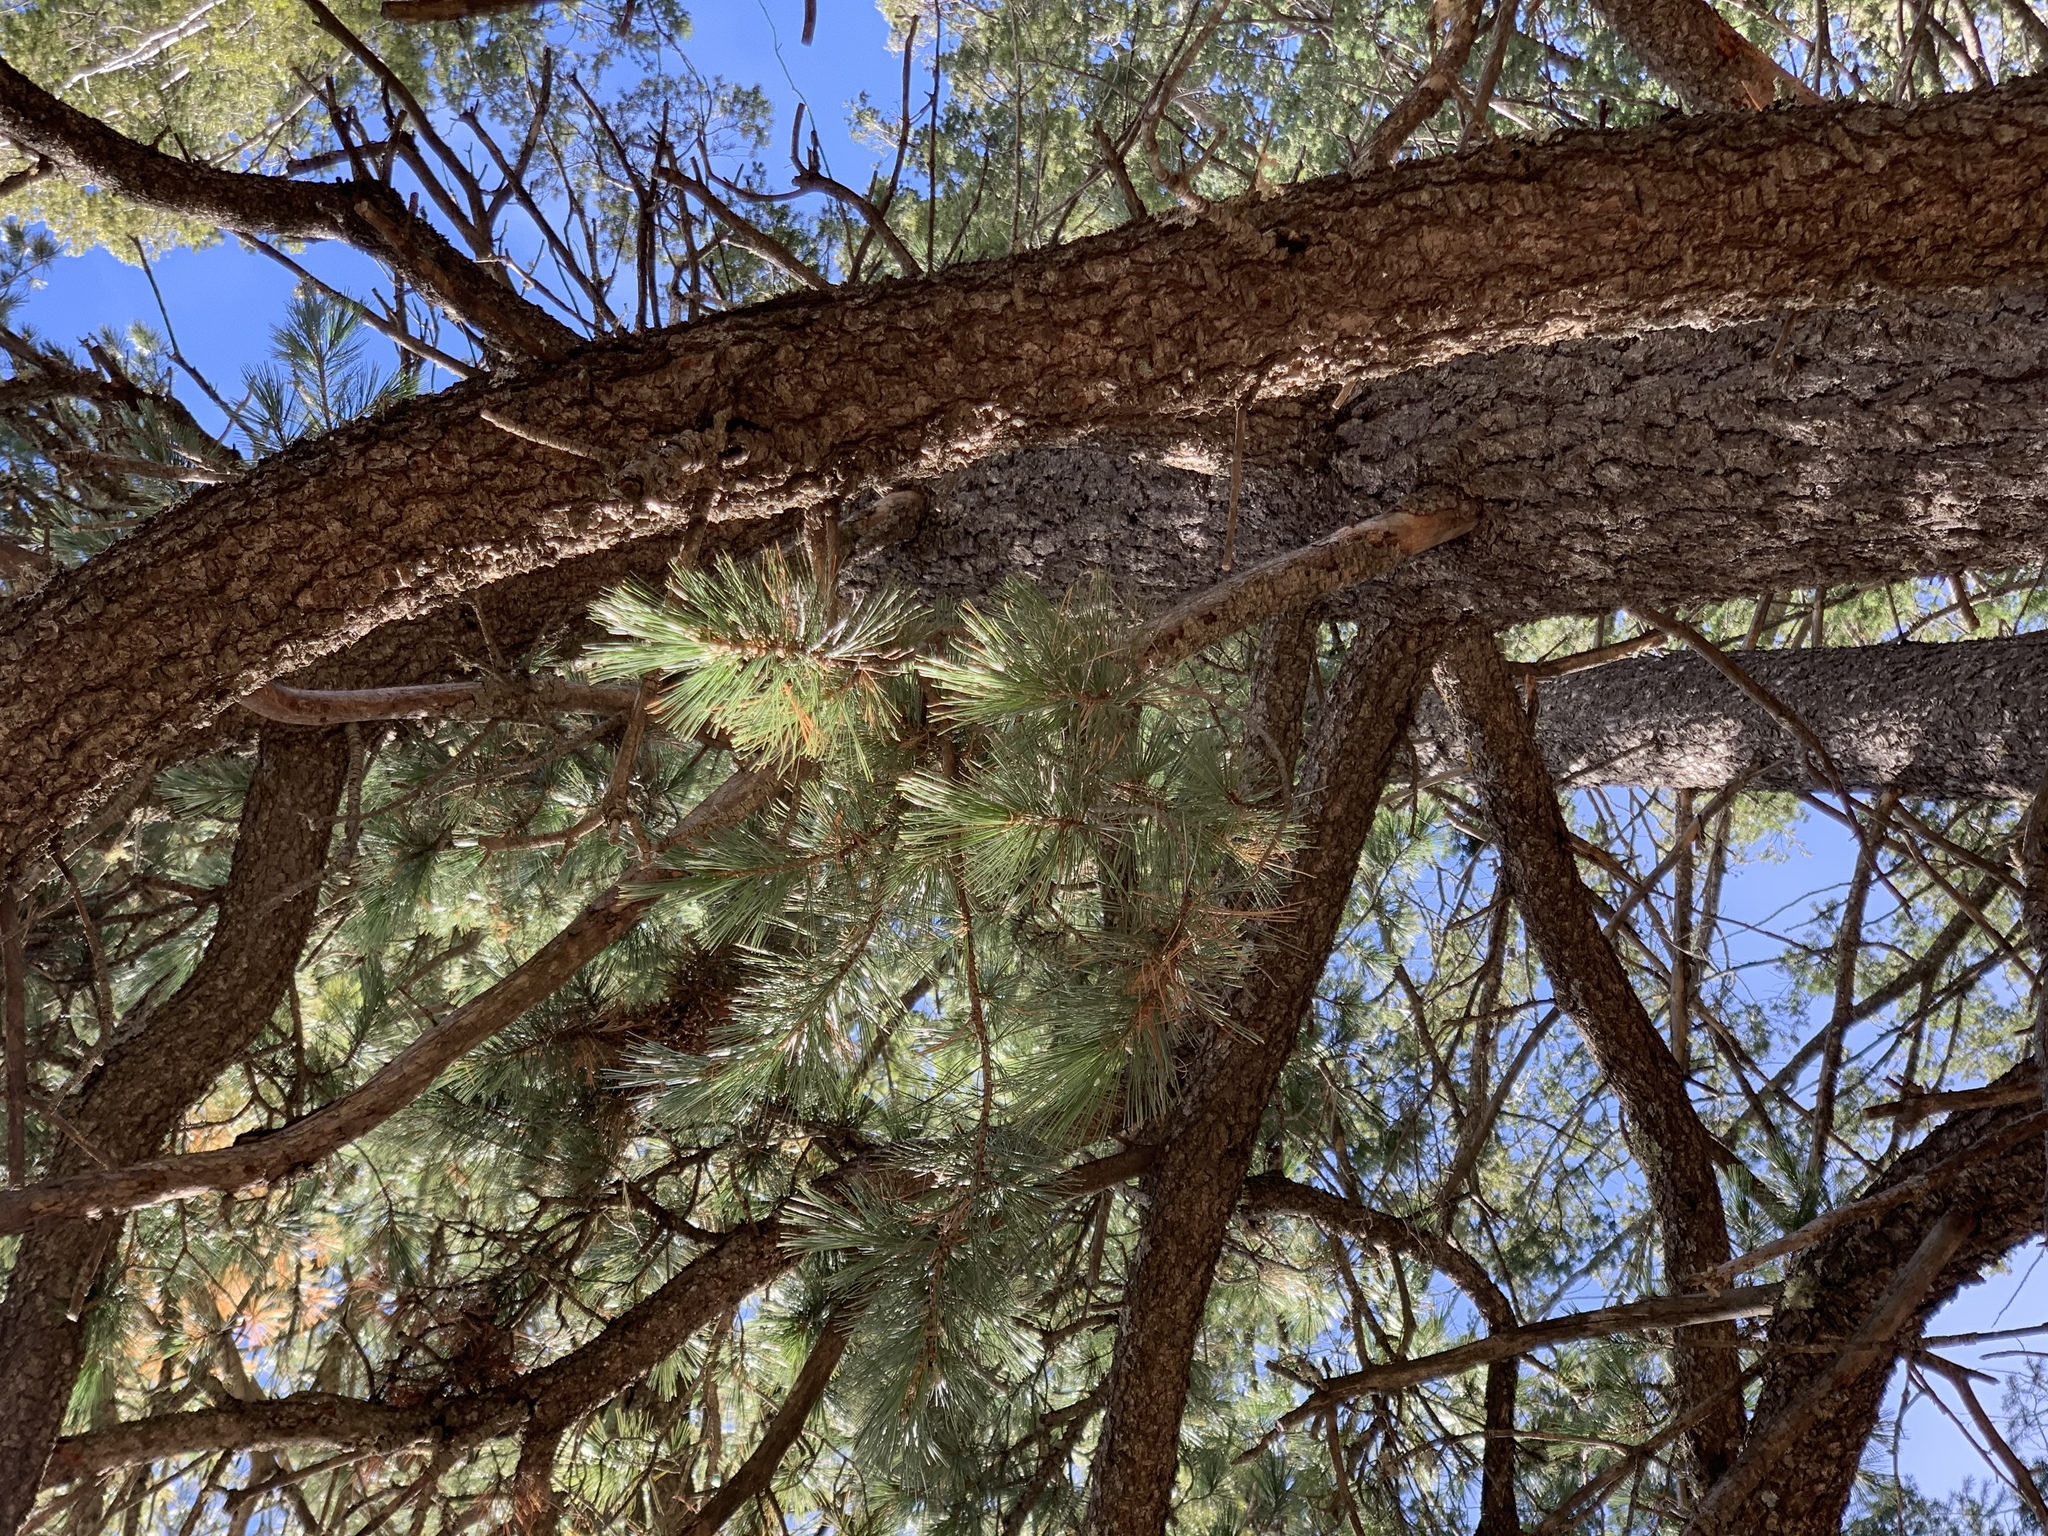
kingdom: Plantae
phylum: Tracheophyta
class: Pinopsida
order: Pinales
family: Pinaceae
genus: Pinus
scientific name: Pinus strobiformis
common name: Southwestern white pine
